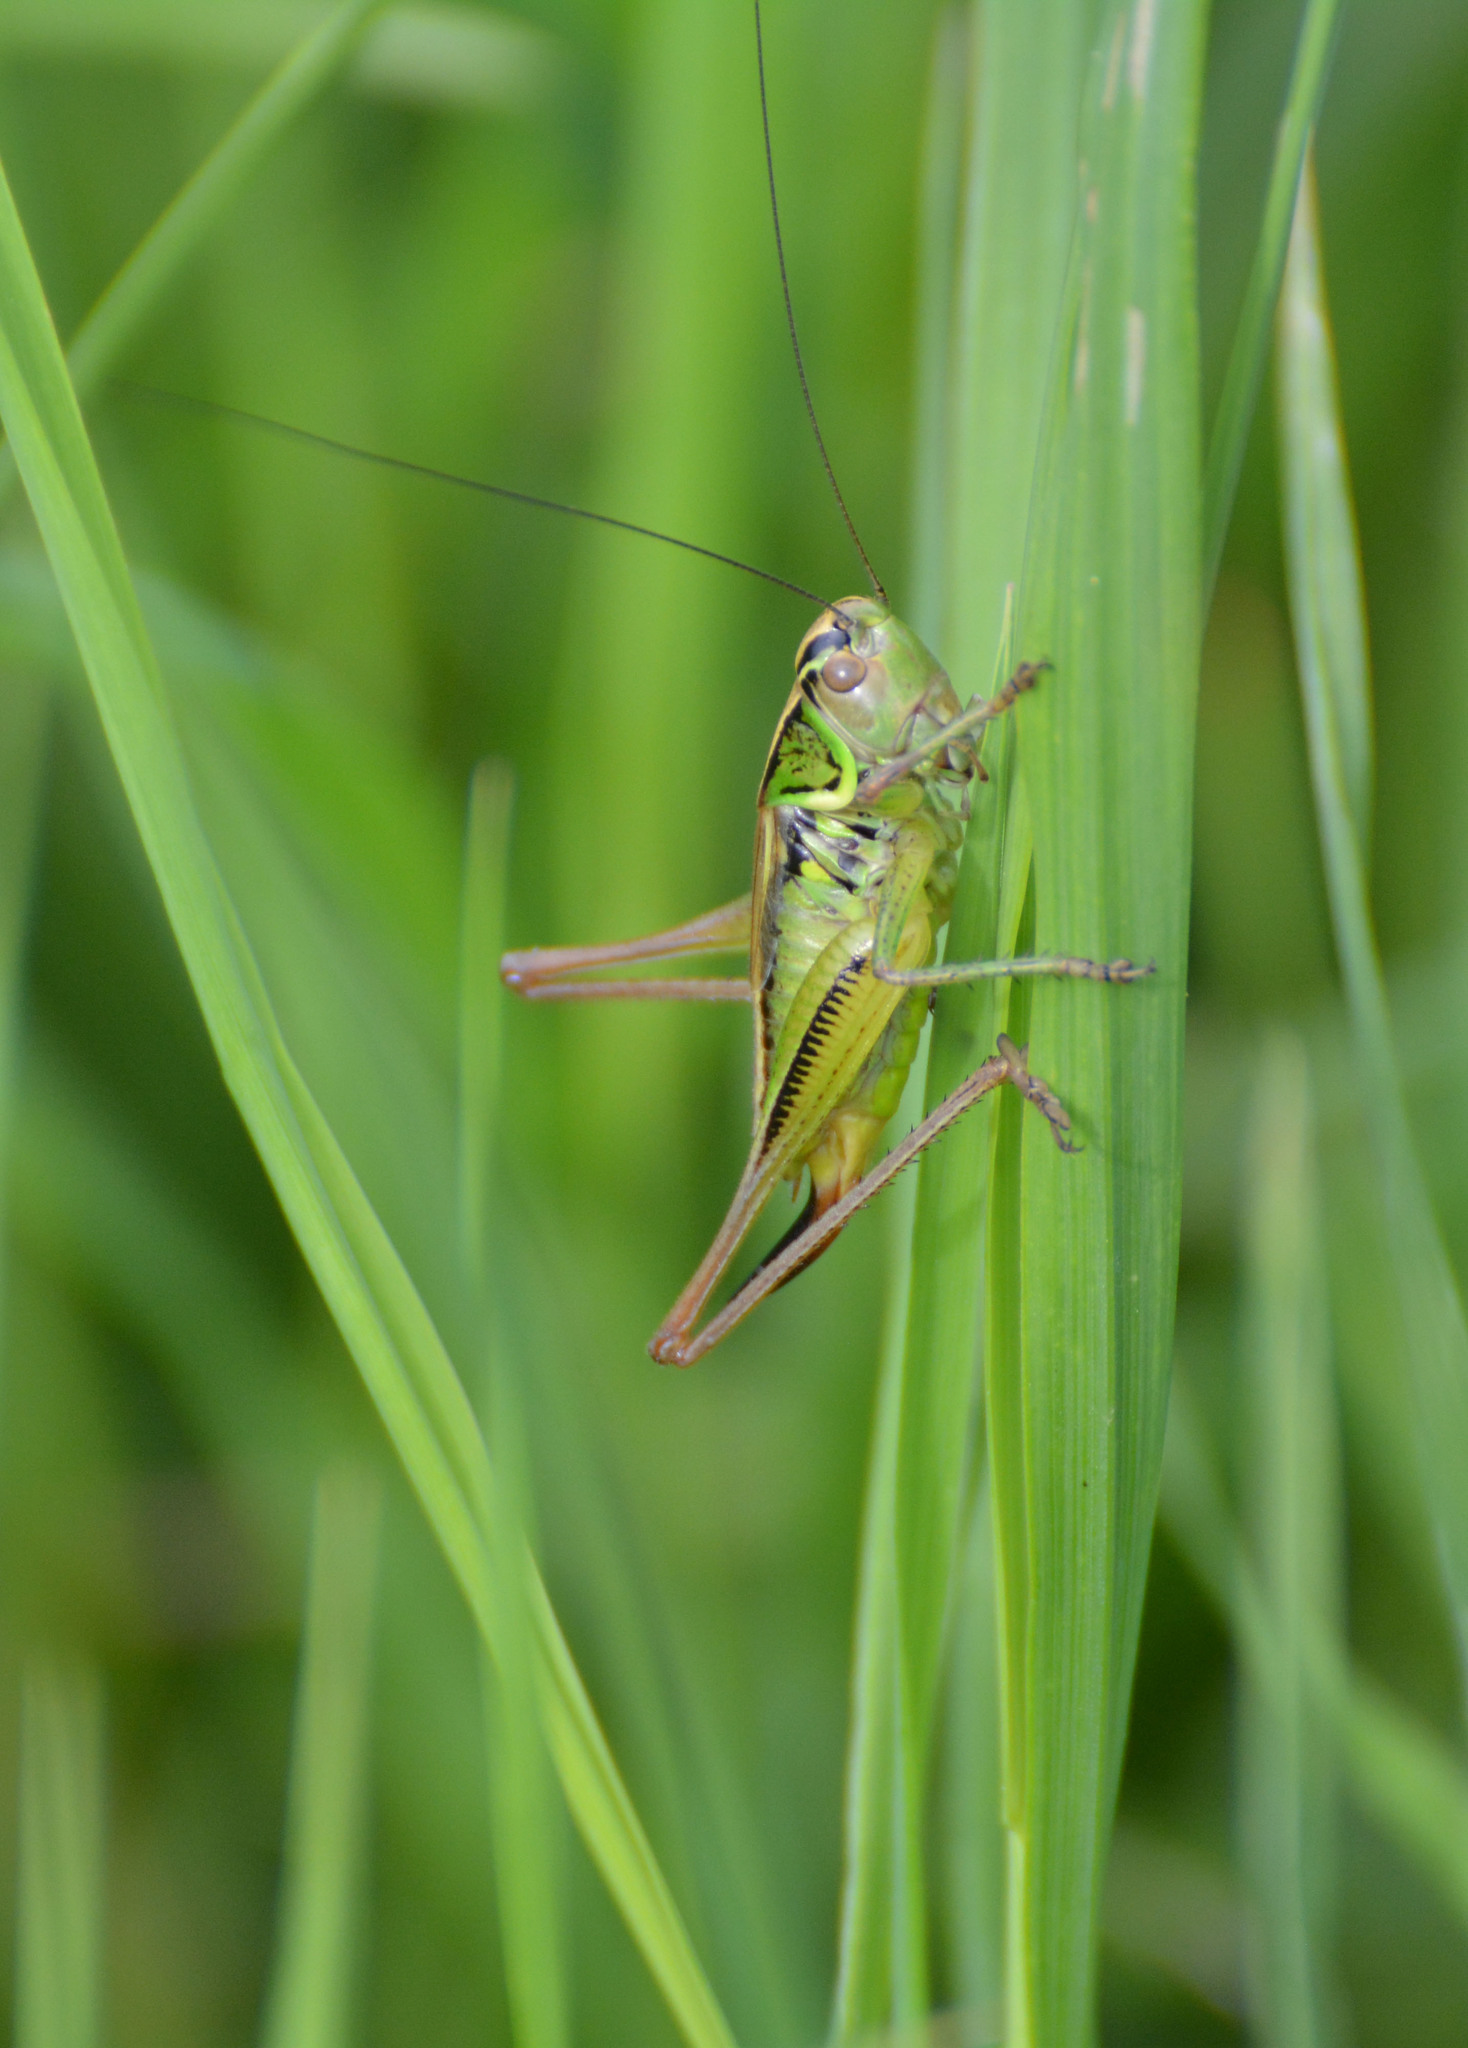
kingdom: Animalia
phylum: Arthropoda
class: Insecta
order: Orthoptera
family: Tettigoniidae
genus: Roeseliana
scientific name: Roeseliana roeselii
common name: Roesel's bush cricket
